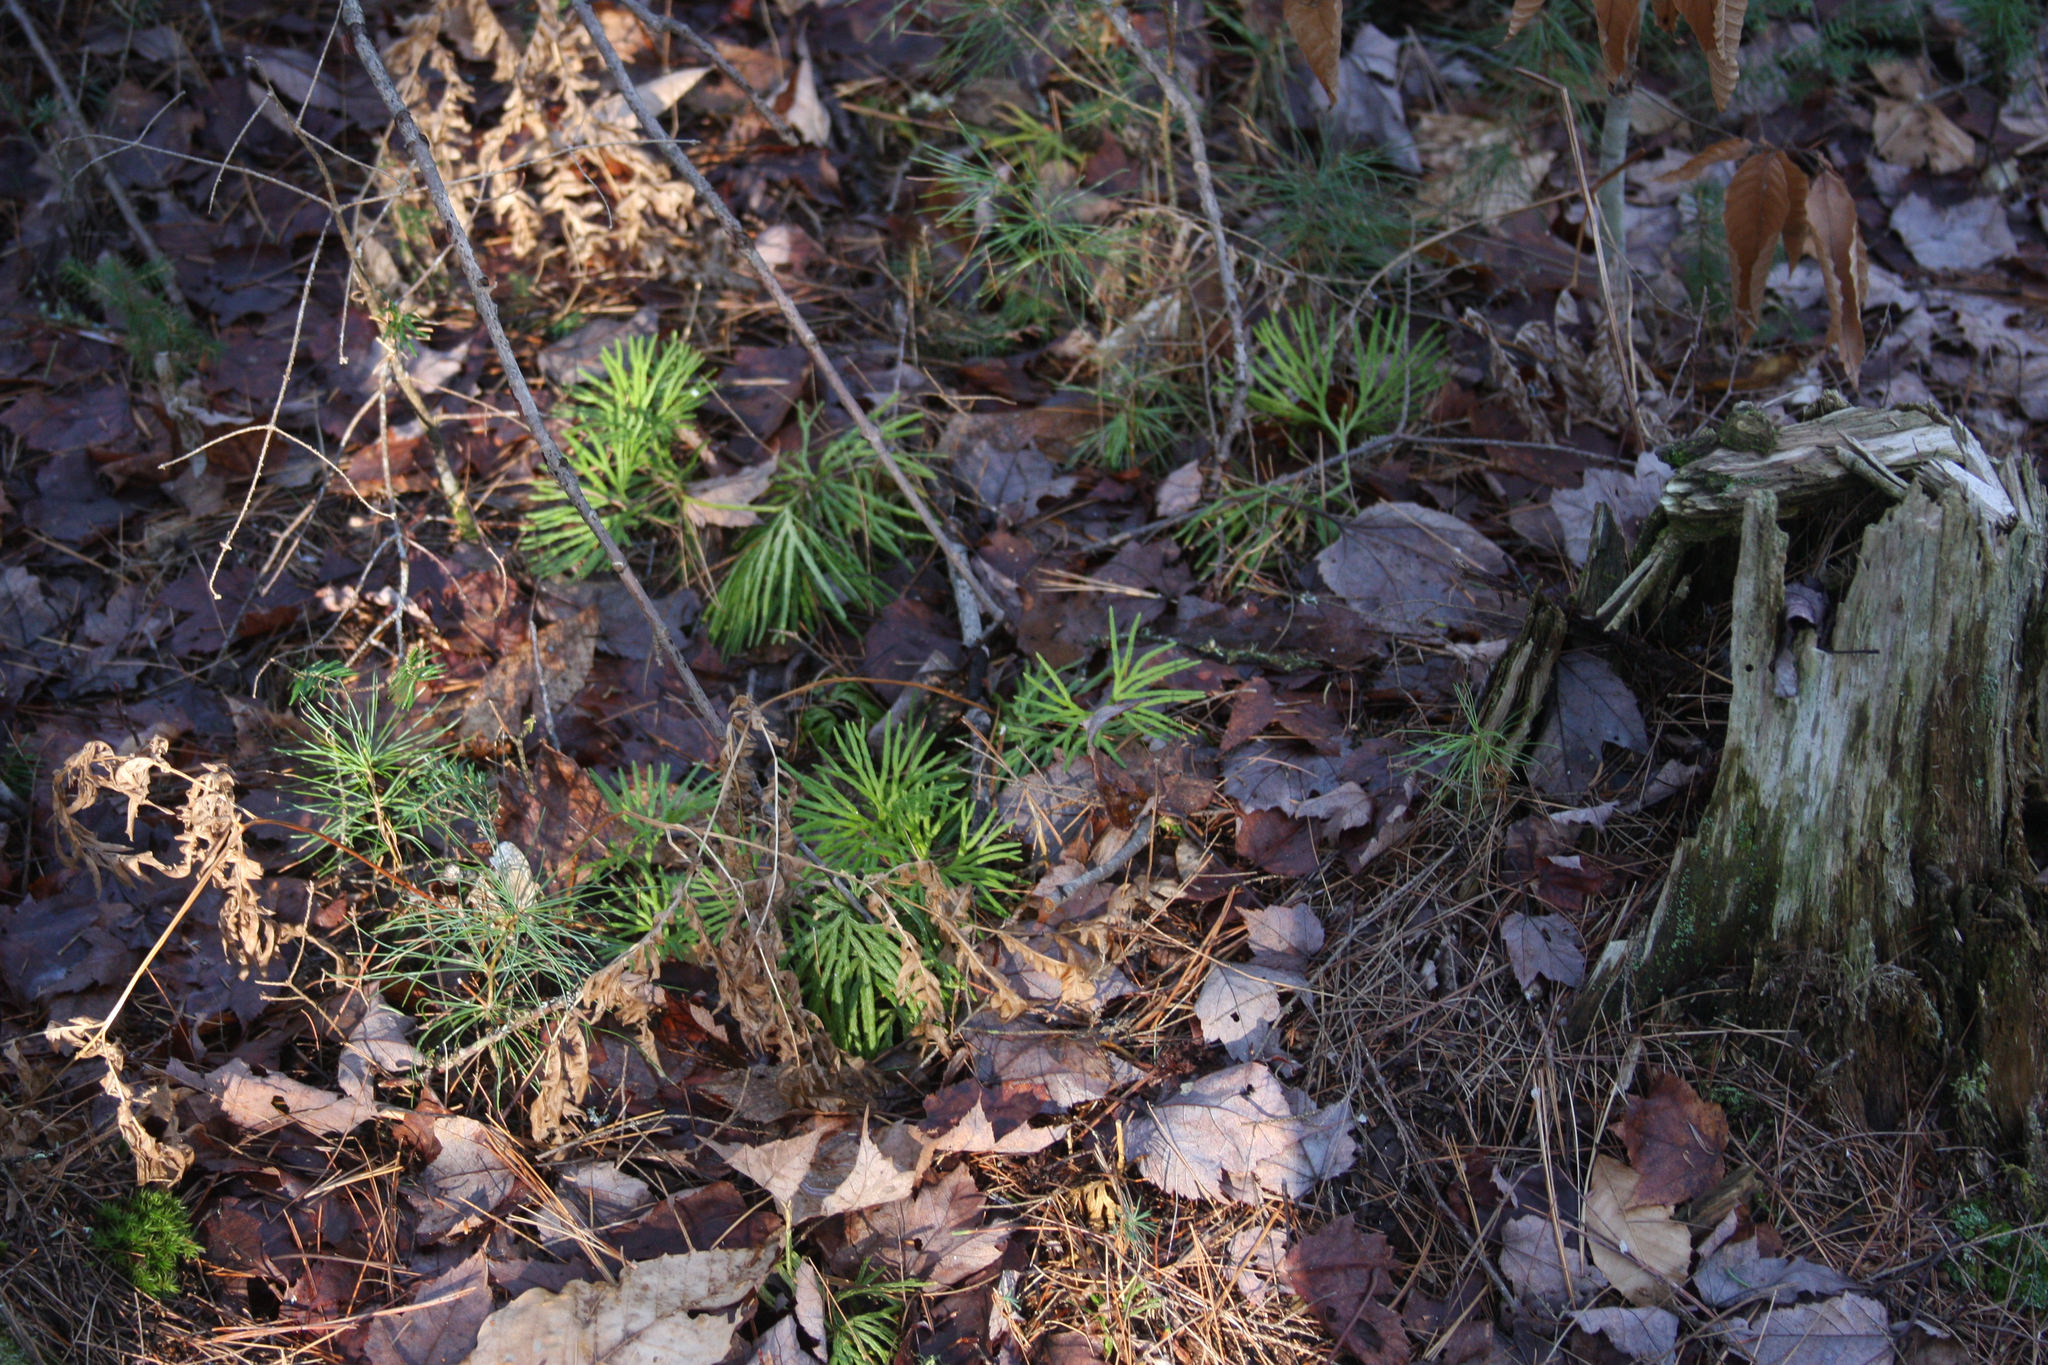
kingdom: Plantae
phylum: Tracheophyta
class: Lycopodiopsida
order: Lycopodiales
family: Lycopodiaceae
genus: Diphasiastrum
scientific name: Diphasiastrum digitatum
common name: Southern running-pine
